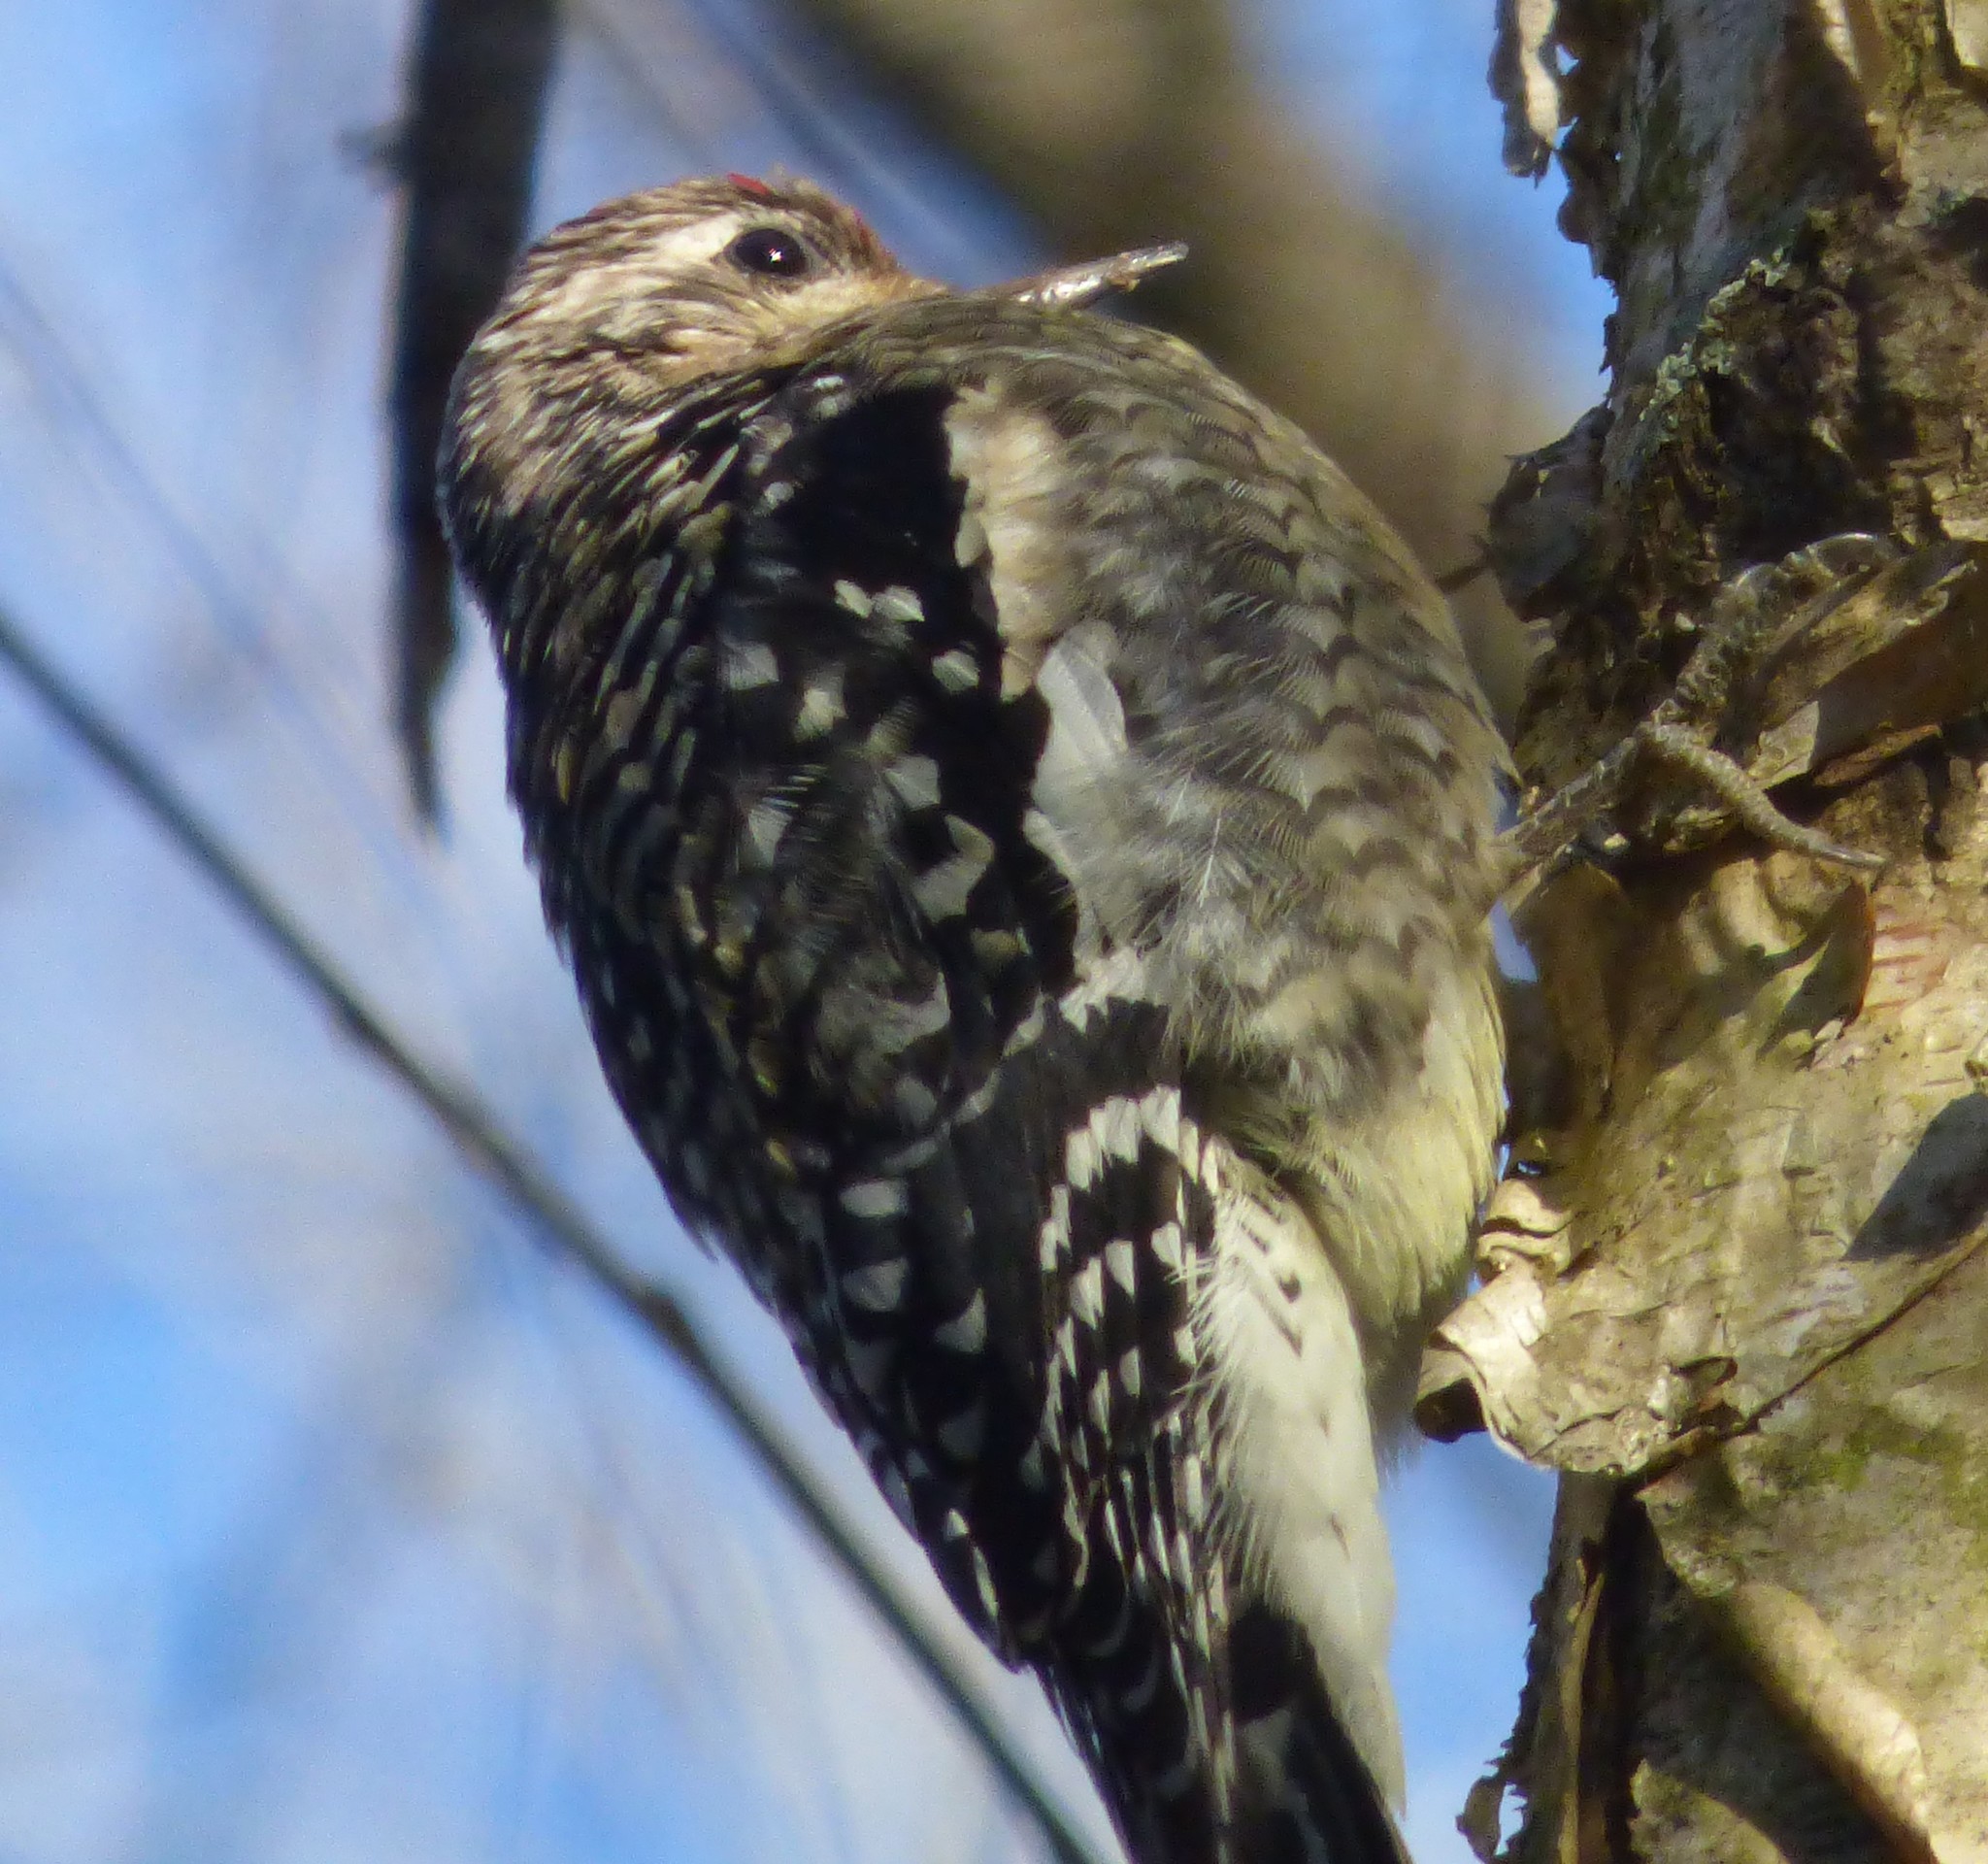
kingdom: Animalia
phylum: Chordata
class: Aves
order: Piciformes
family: Picidae
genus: Sphyrapicus
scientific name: Sphyrapicus varius
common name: Yellow-bellied sapsucker
